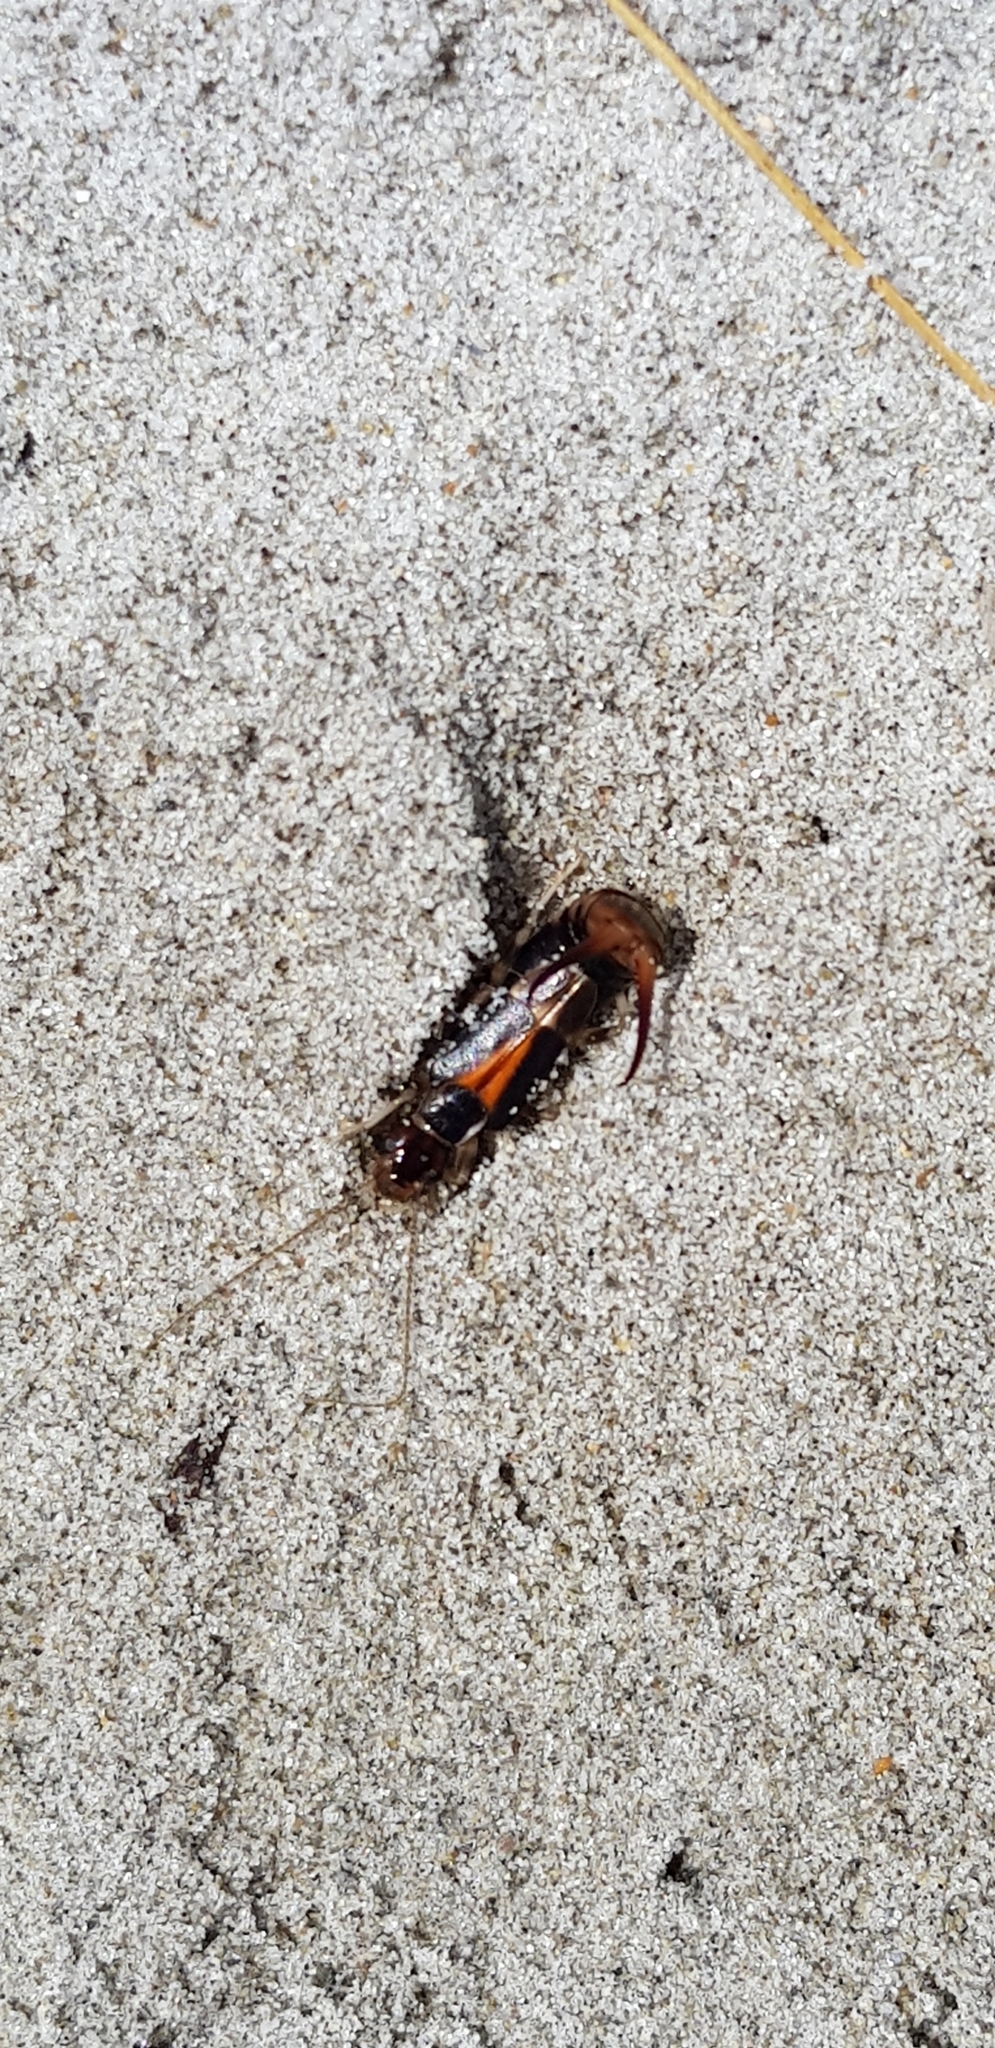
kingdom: Animalia
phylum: Arthropoda
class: Insecta
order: Dermaptera
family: Labiduridae
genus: Labidura
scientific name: Labidura riparia
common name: Striped earwig
